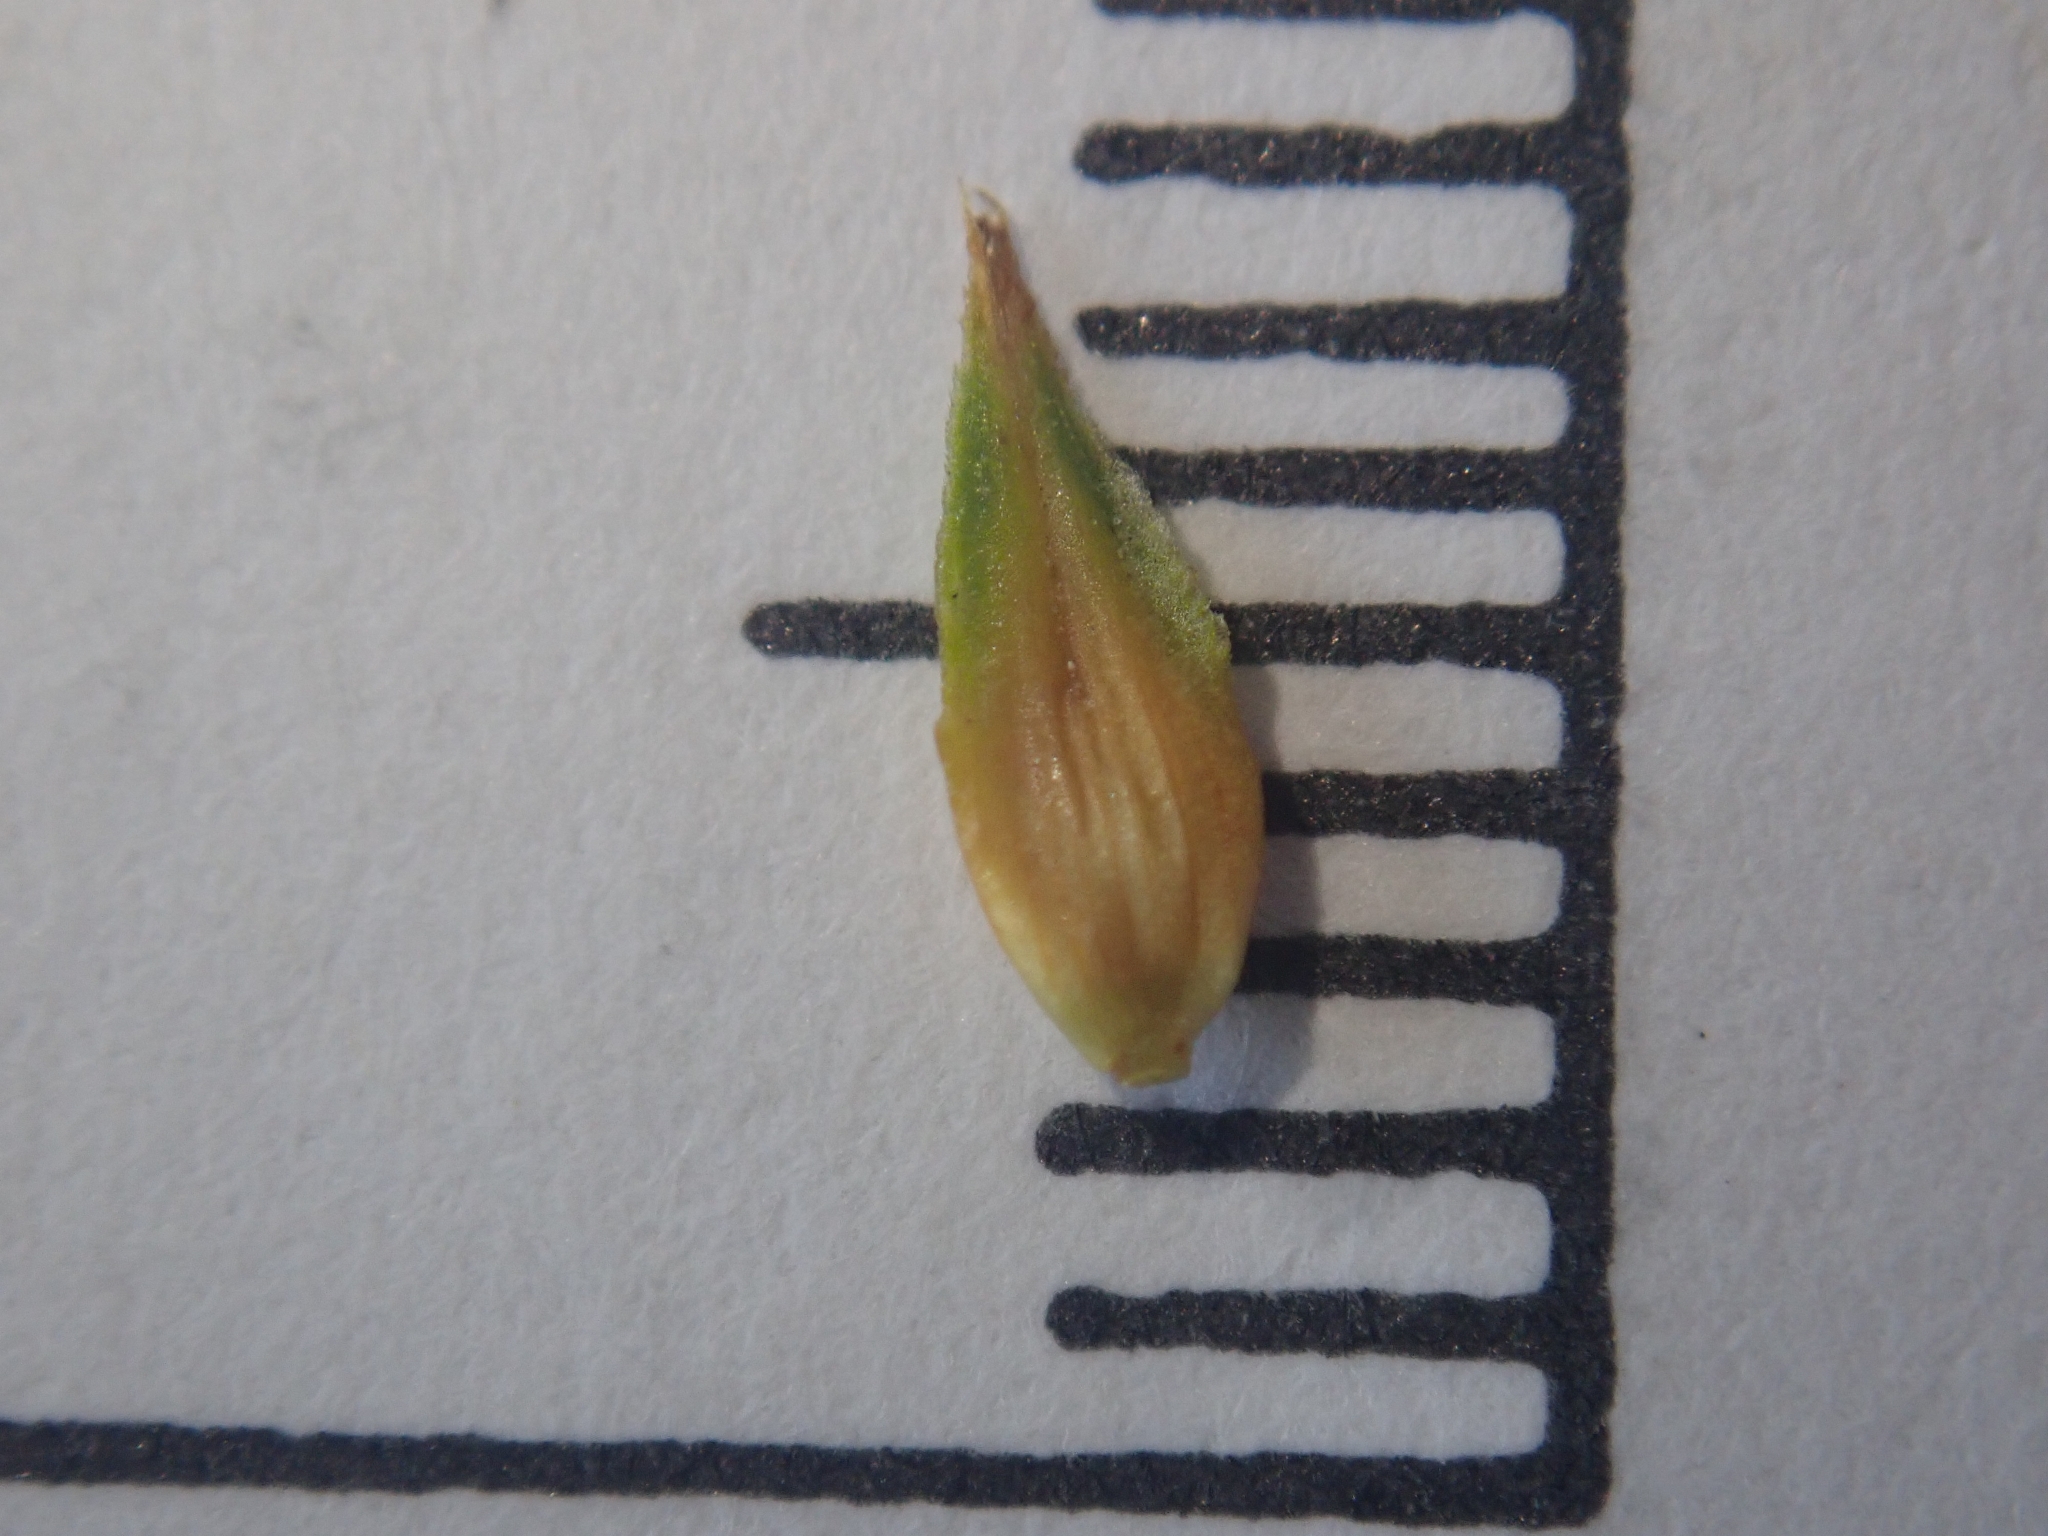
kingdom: Plantae
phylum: Tracheophyta
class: Liliopsida
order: Poales
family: Cyperaceae
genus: Carex
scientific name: Carex arenaria
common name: Sand sedge
